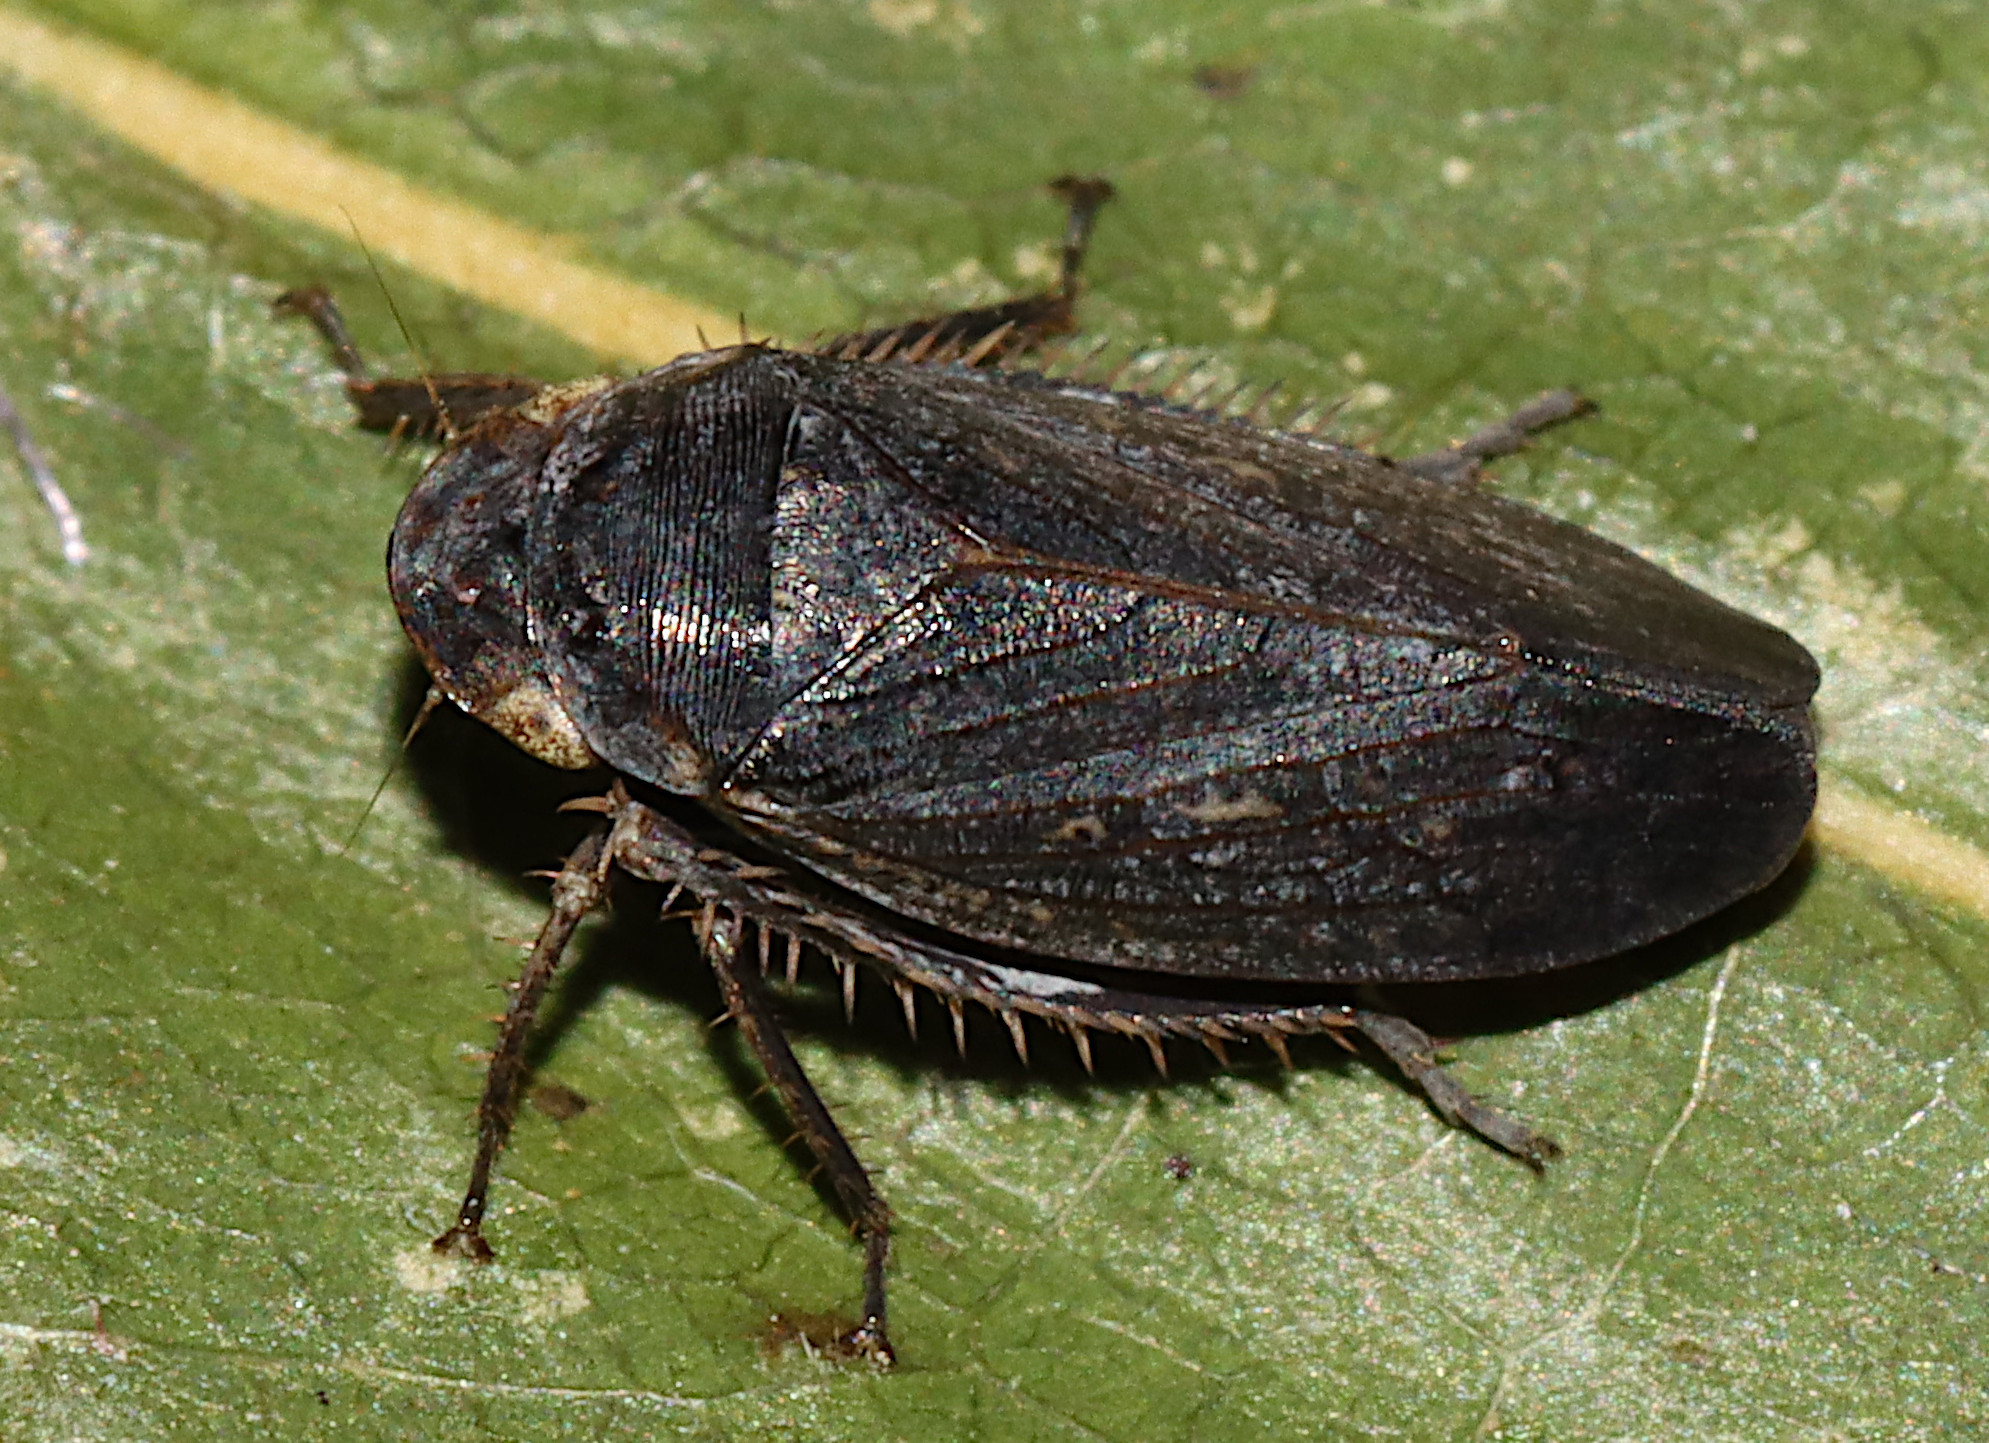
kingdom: Animalia
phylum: Arthropoda
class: Insecta
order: Hemiptera
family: Cicadellidae
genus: Negosiana
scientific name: Negosiana dualis
